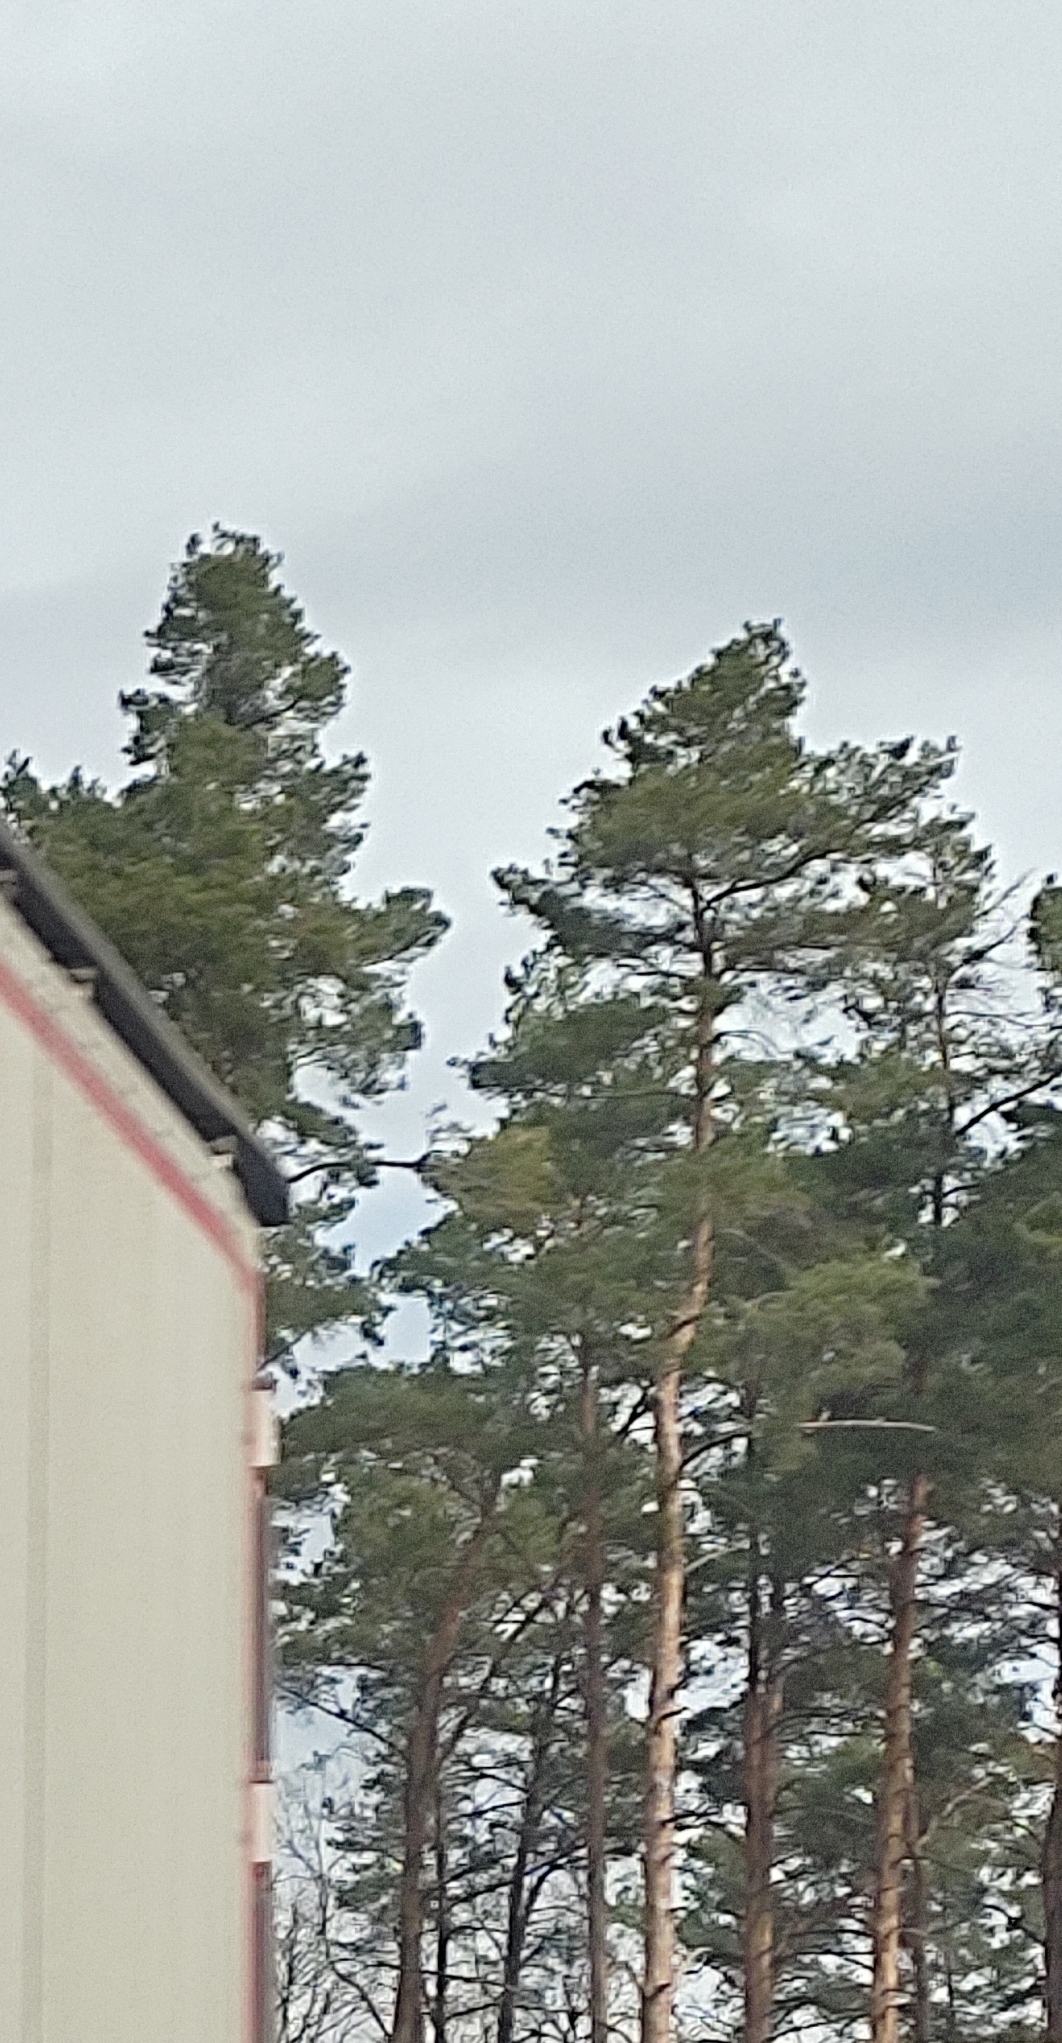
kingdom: Plantae
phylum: Tracheophyta
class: Pinopsida
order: Pinales
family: Pinaceae
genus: Pinus
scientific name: Pinus sylvestris
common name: Scots pine
